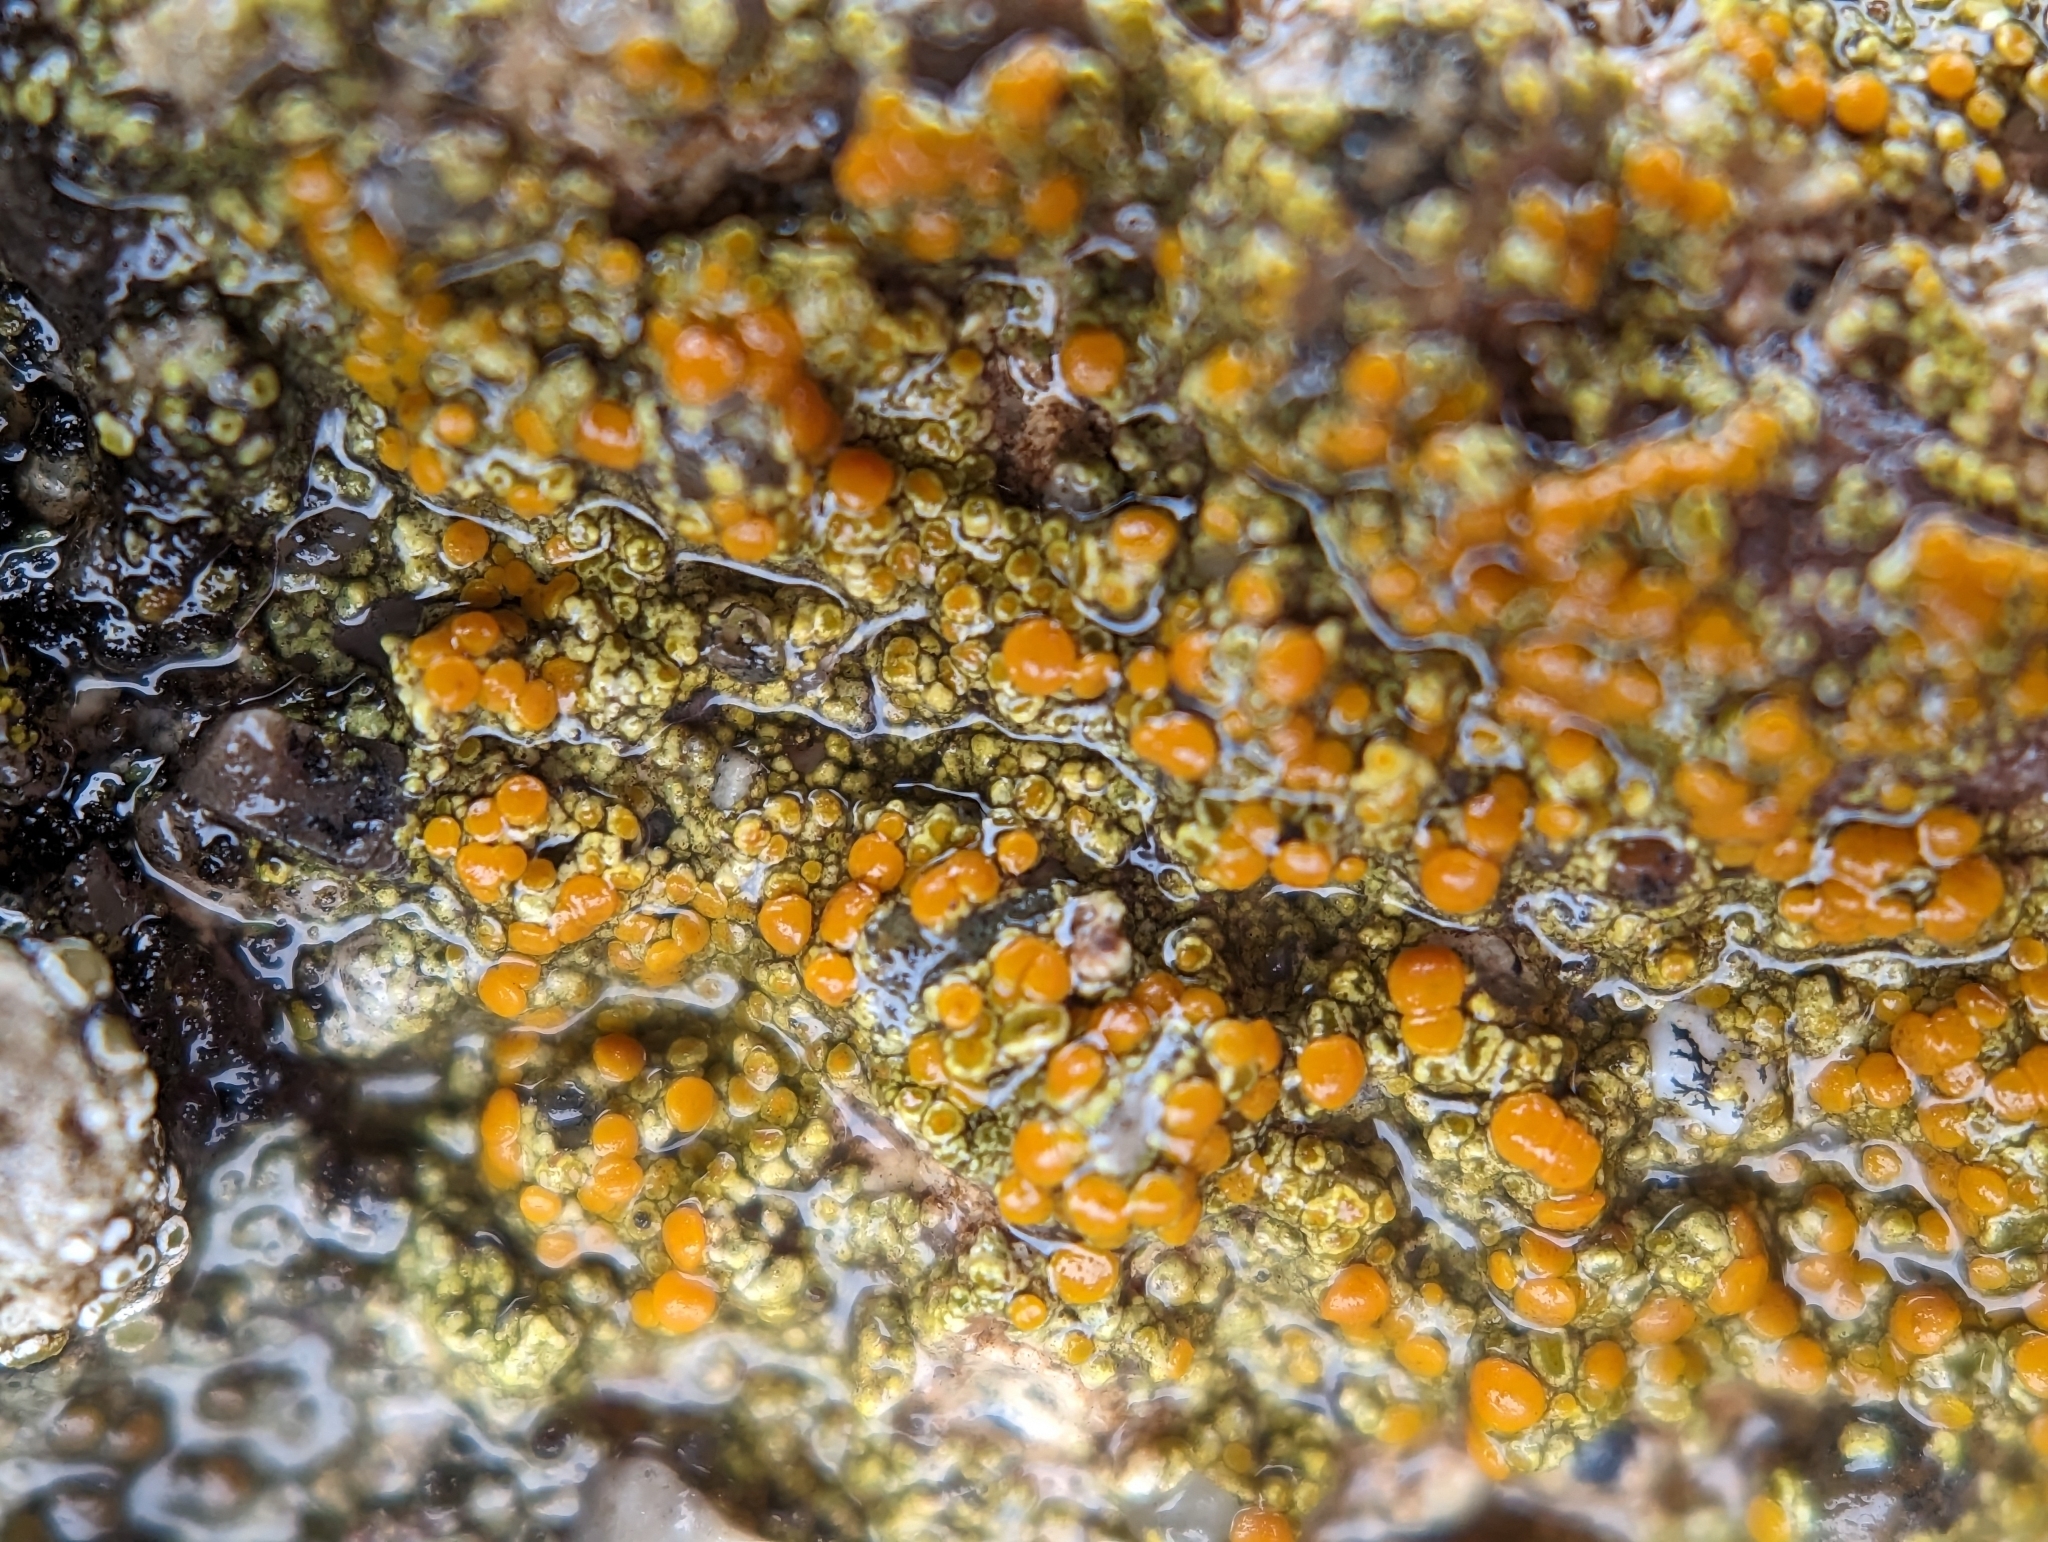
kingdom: Fungi
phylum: Ascomycota
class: Lecanoromycetes
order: Teloschistales
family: Teloschistaceae
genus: Gyalolechia
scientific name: Gyalolechia flavovirescens
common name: Sulphur firedot
